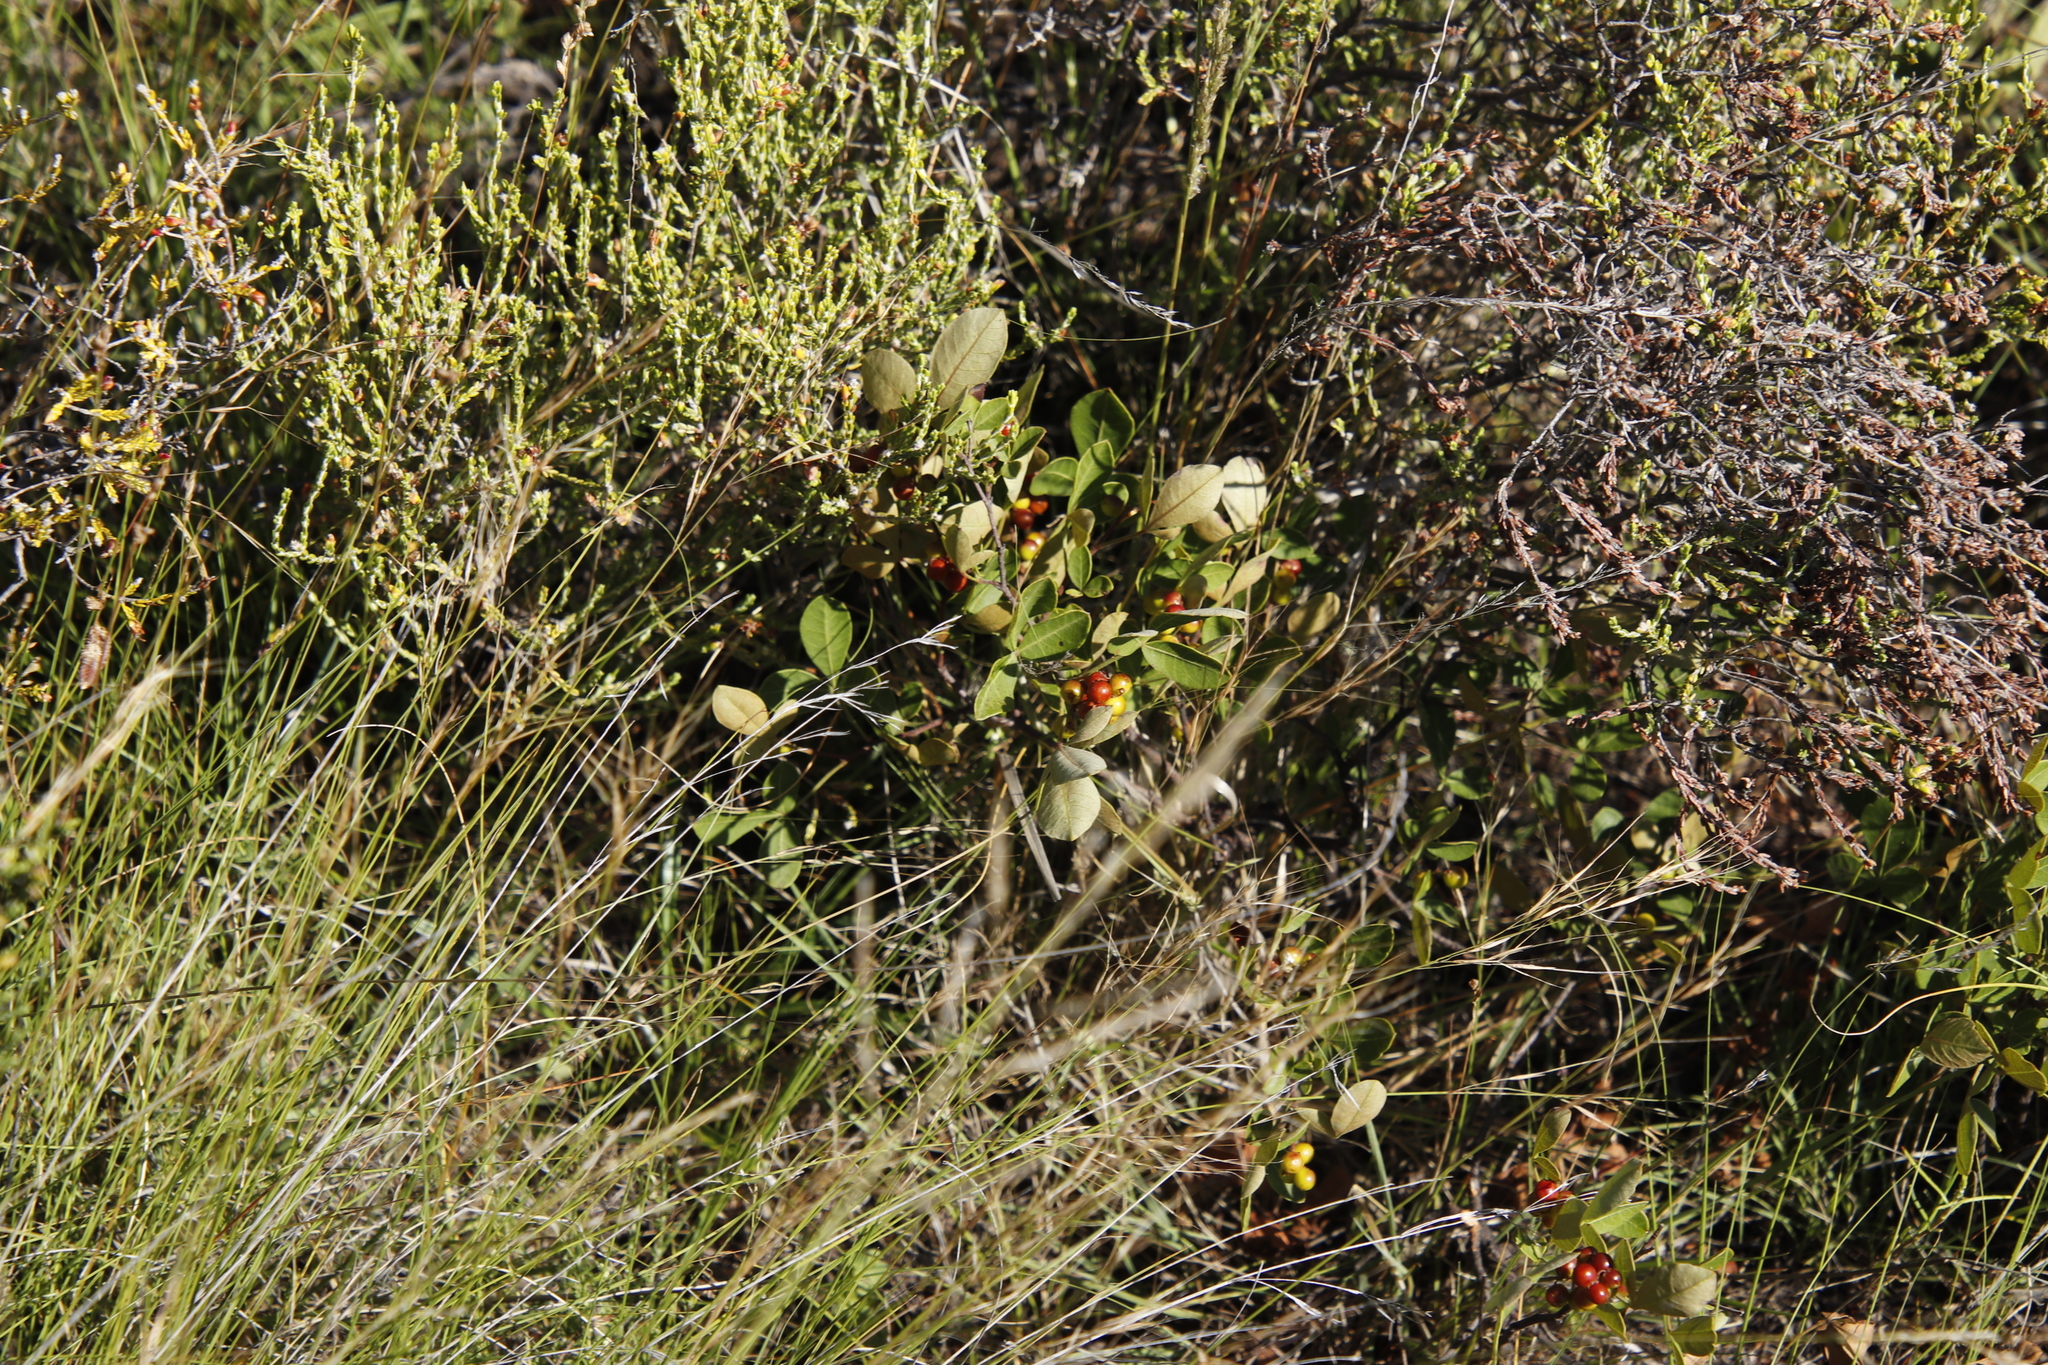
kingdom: Plantae
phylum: Tracheophyta
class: Magnoliopsida
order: Sapindales
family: Anacardiaceae
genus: Searsia
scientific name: Searsia divaricata
